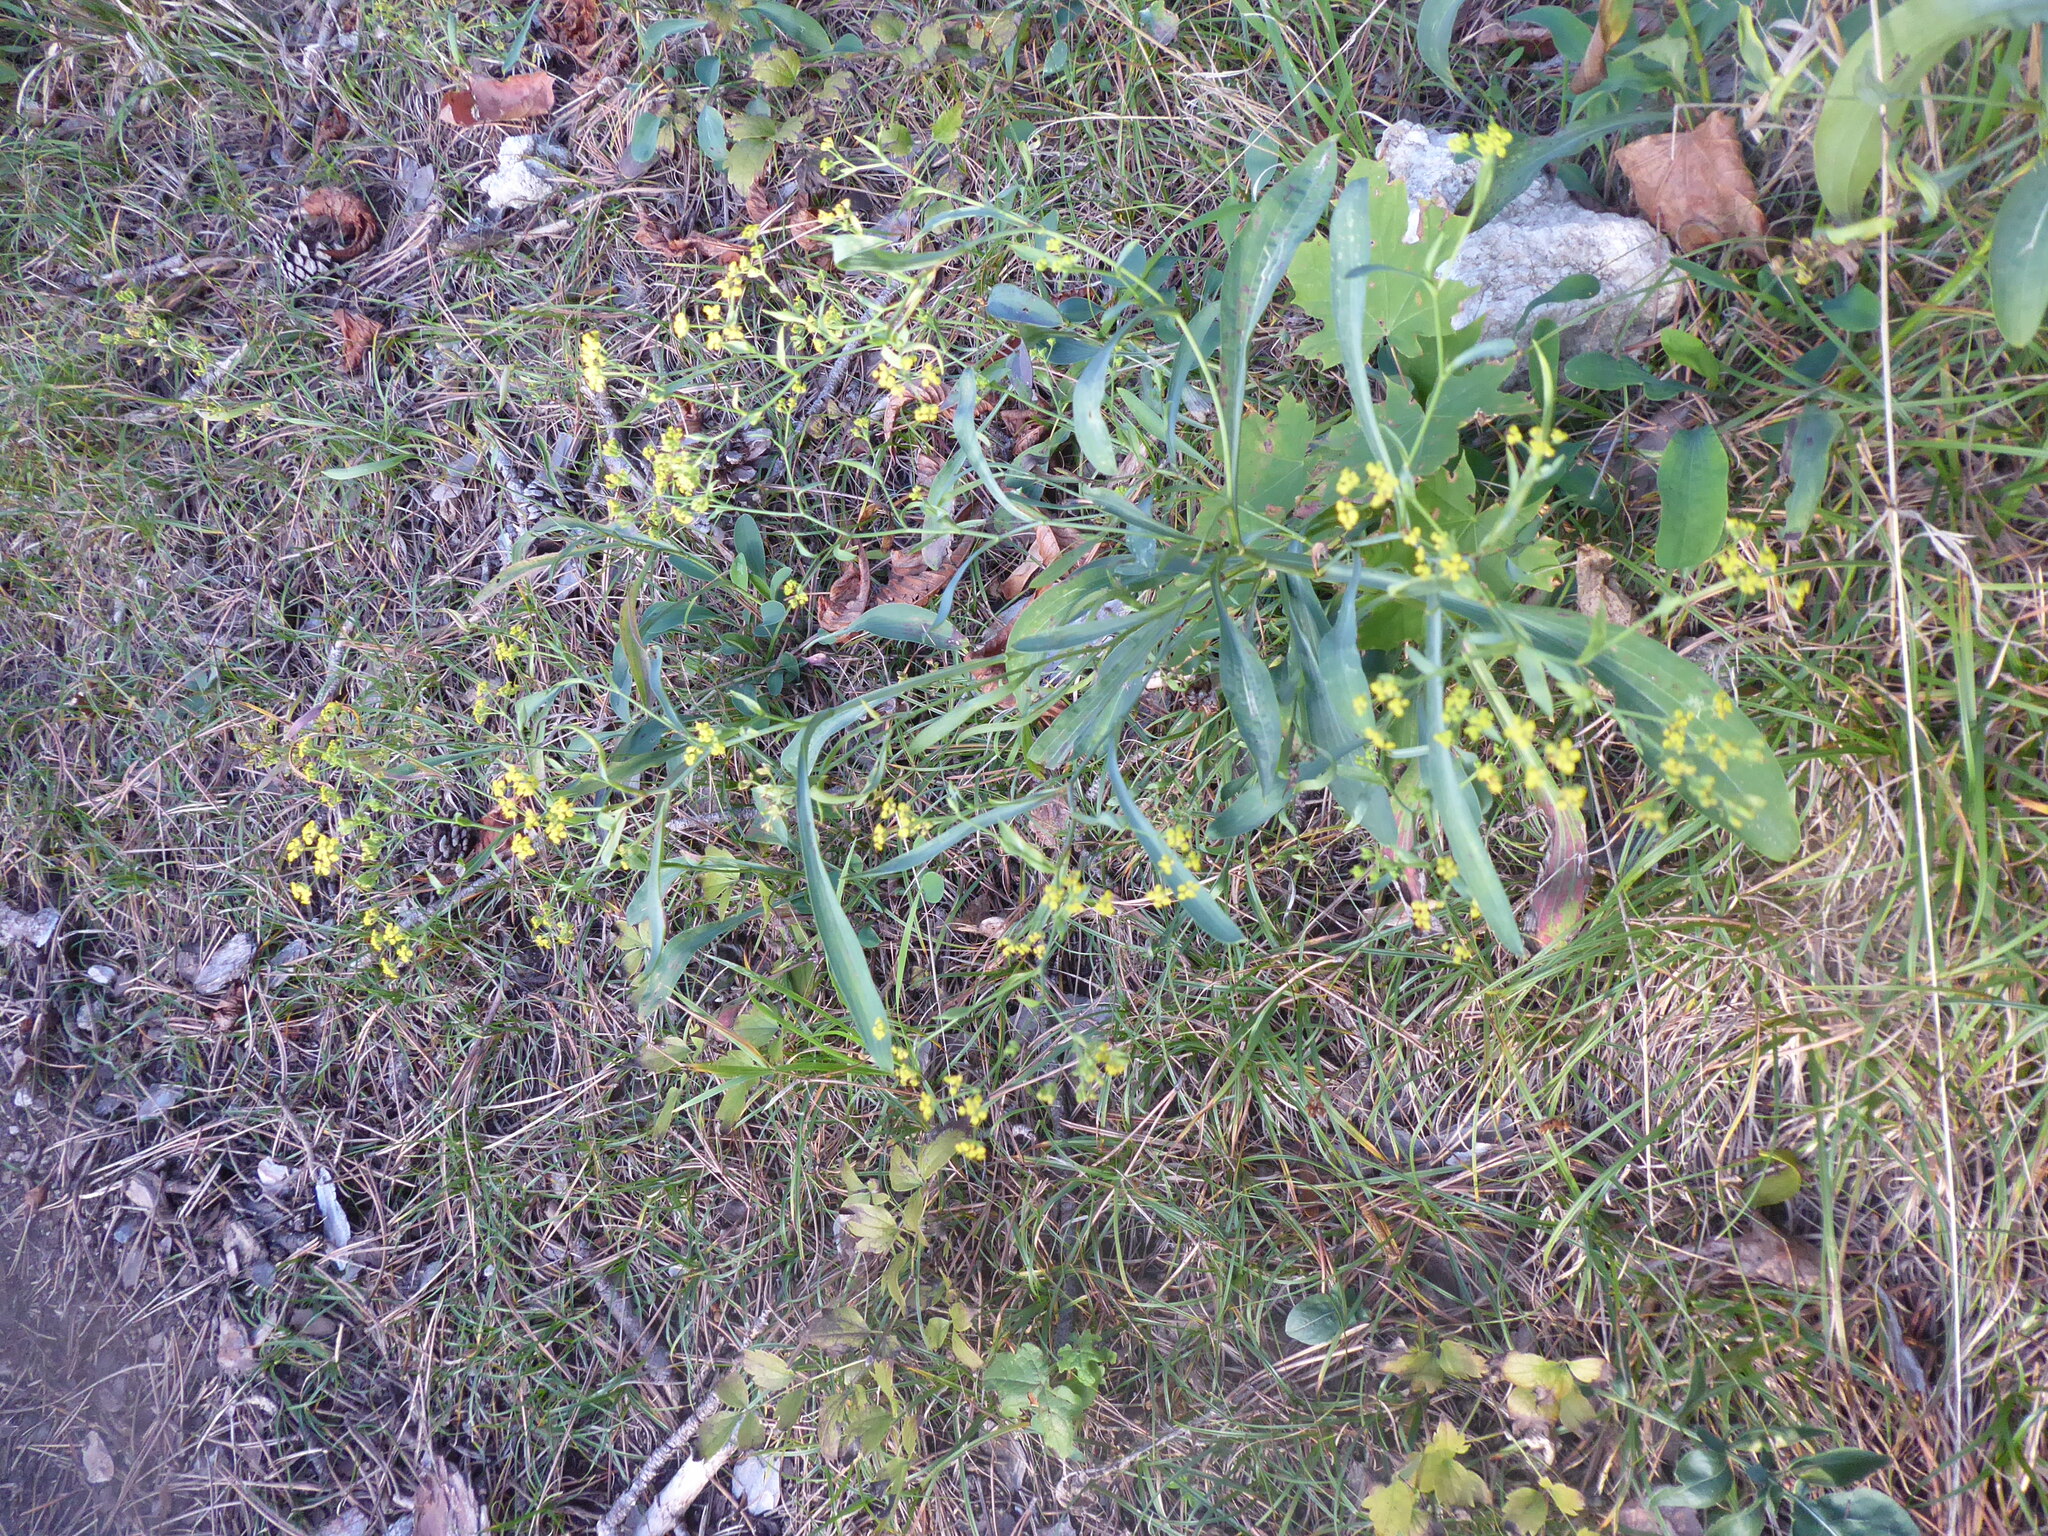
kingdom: Plantae
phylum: Tracheophyta
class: Magnoliopsida
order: Apiales
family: Apiaceae
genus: Bupleurum
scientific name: Bupleurum falcatum
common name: Sickle-leaved hare's-ear
